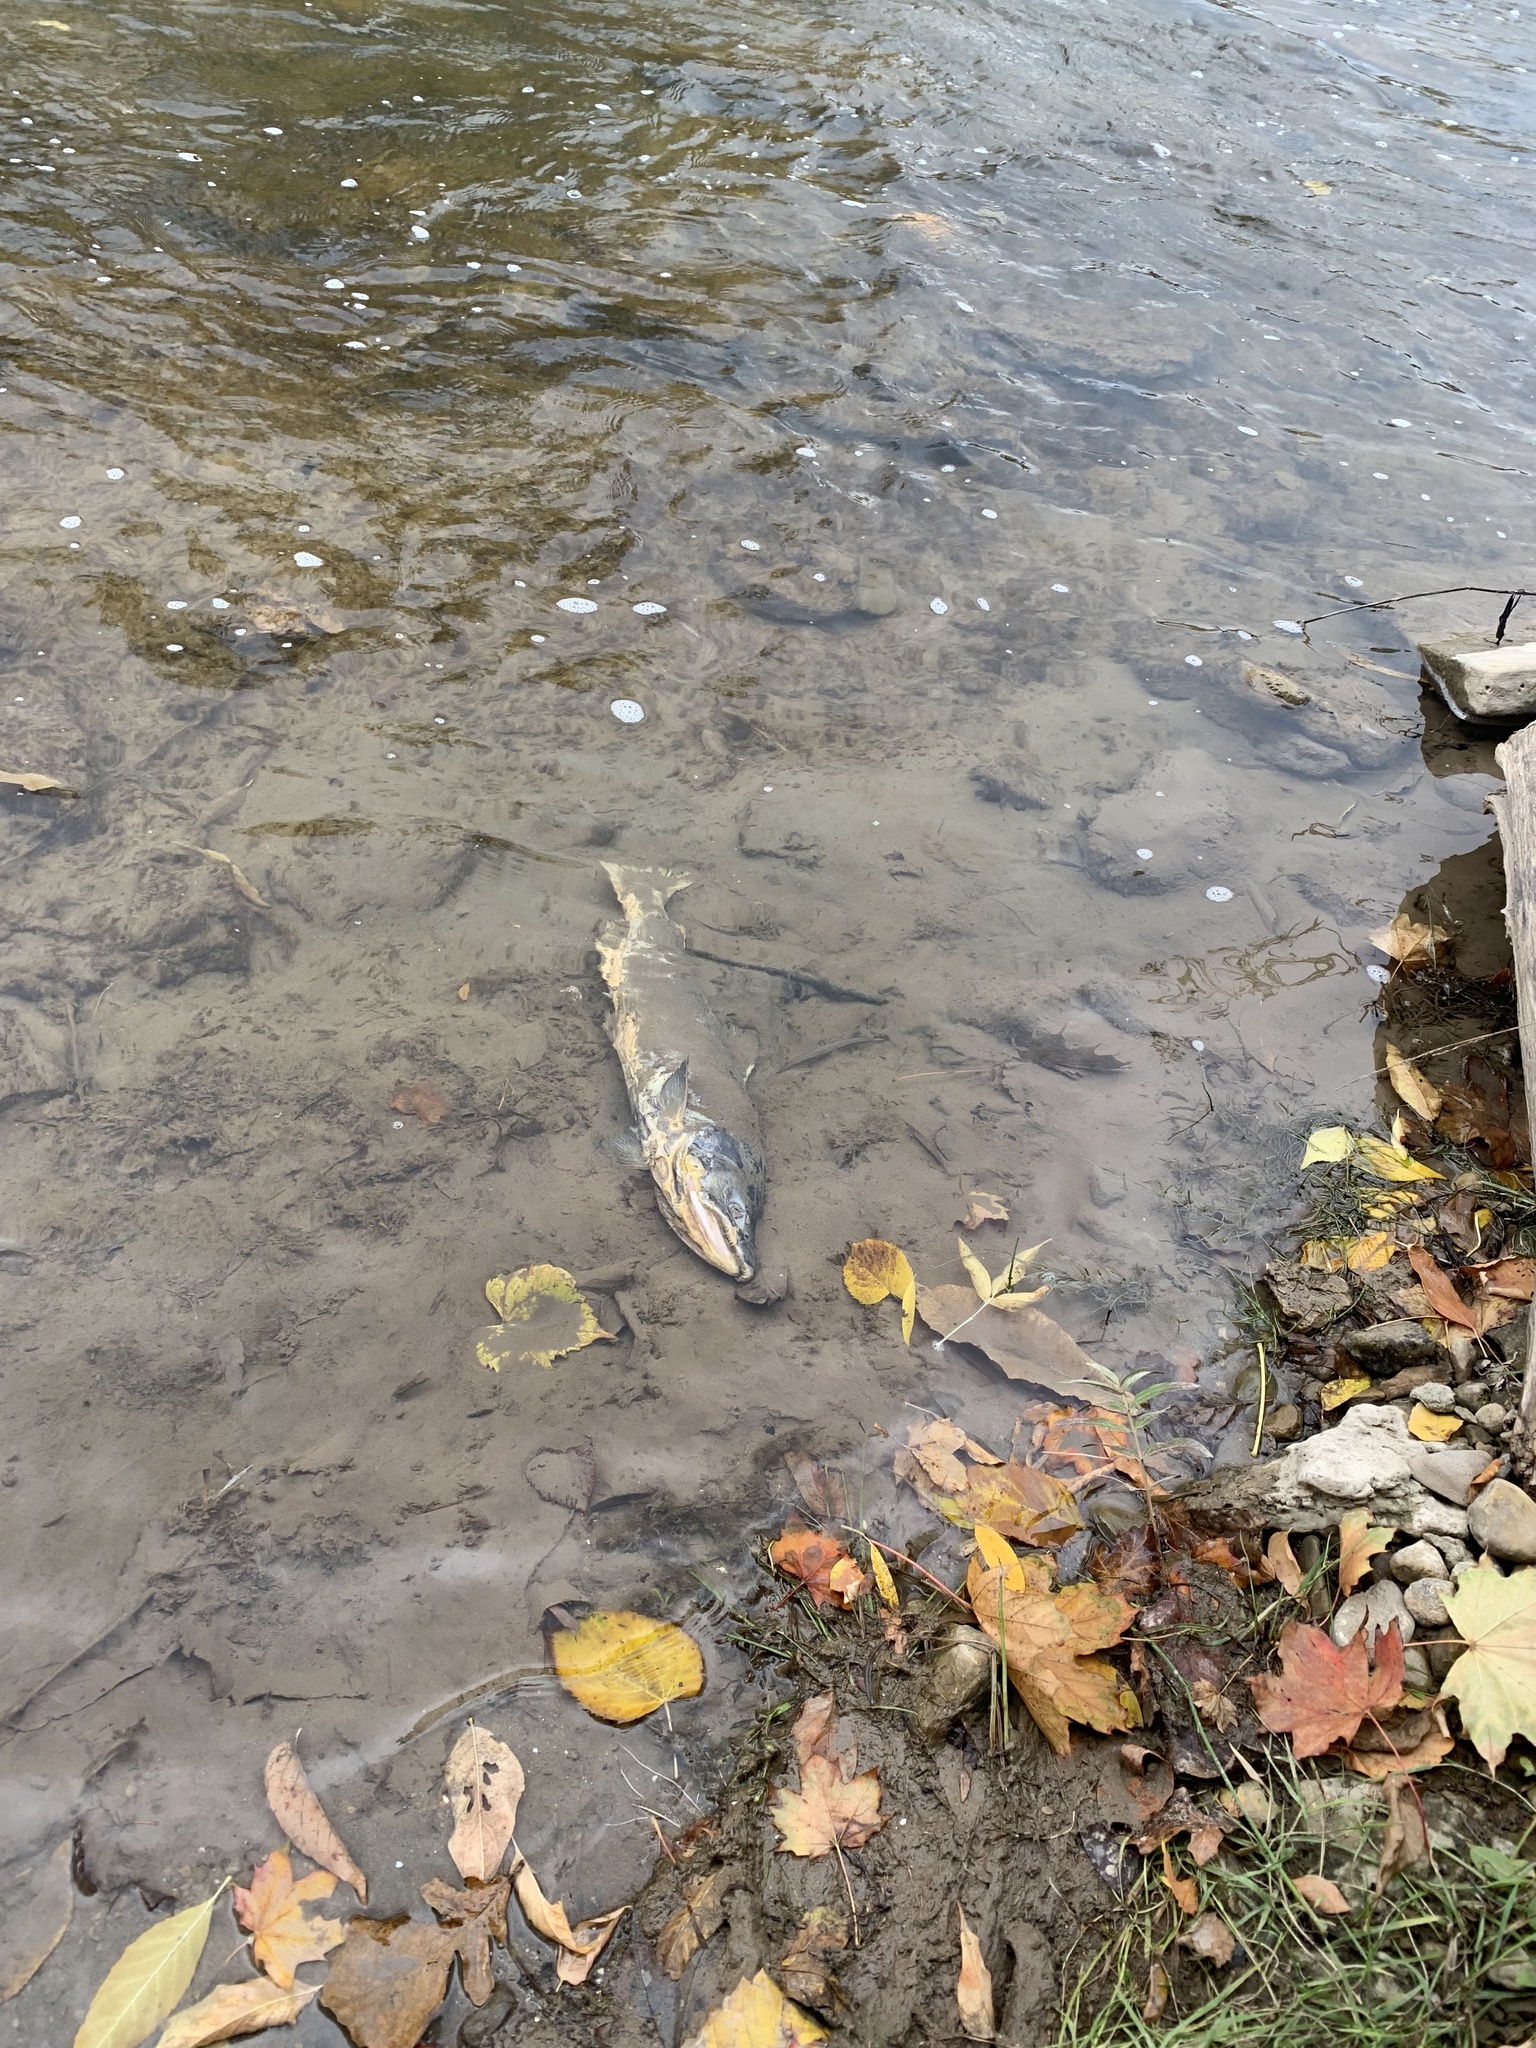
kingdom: Animalia
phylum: Chordata
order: Salmoniformes
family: Salmonidae
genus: Oncorhynchus
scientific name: Oncorhynchus tshawytscha
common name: Chinook salmon
